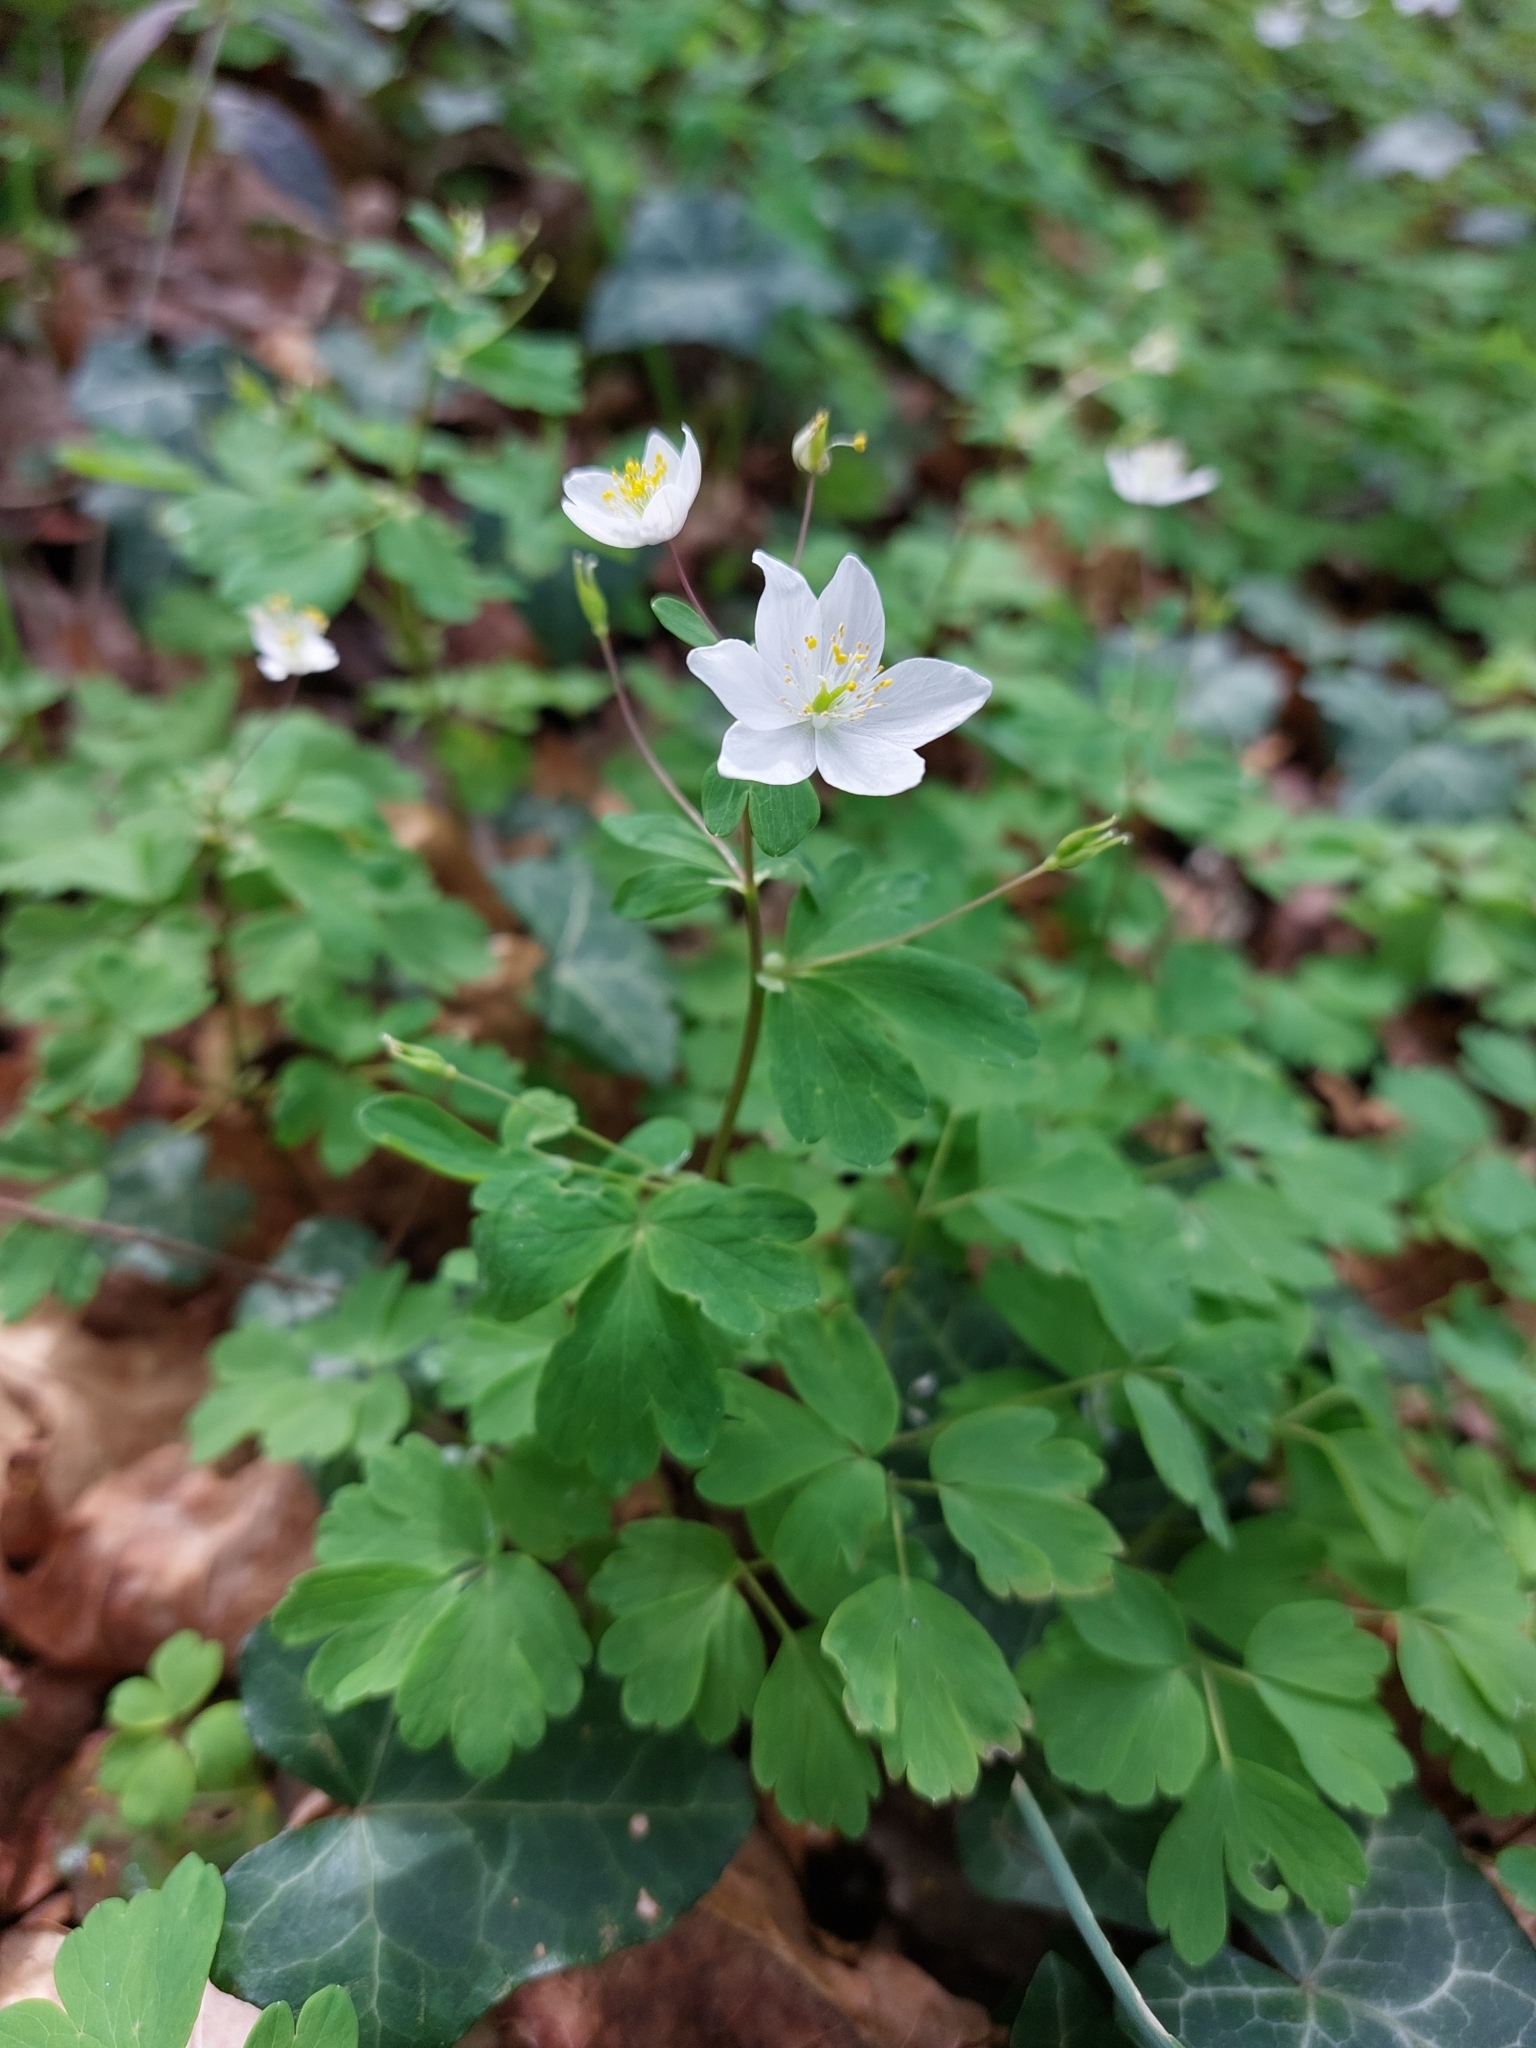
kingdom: Plantae
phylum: Tracheophyta
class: Magnoliopsida
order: Ranunculales
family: Ranunculaceae
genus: Isopyrum
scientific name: Isopyrum thalictroides
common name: Isopyrum
